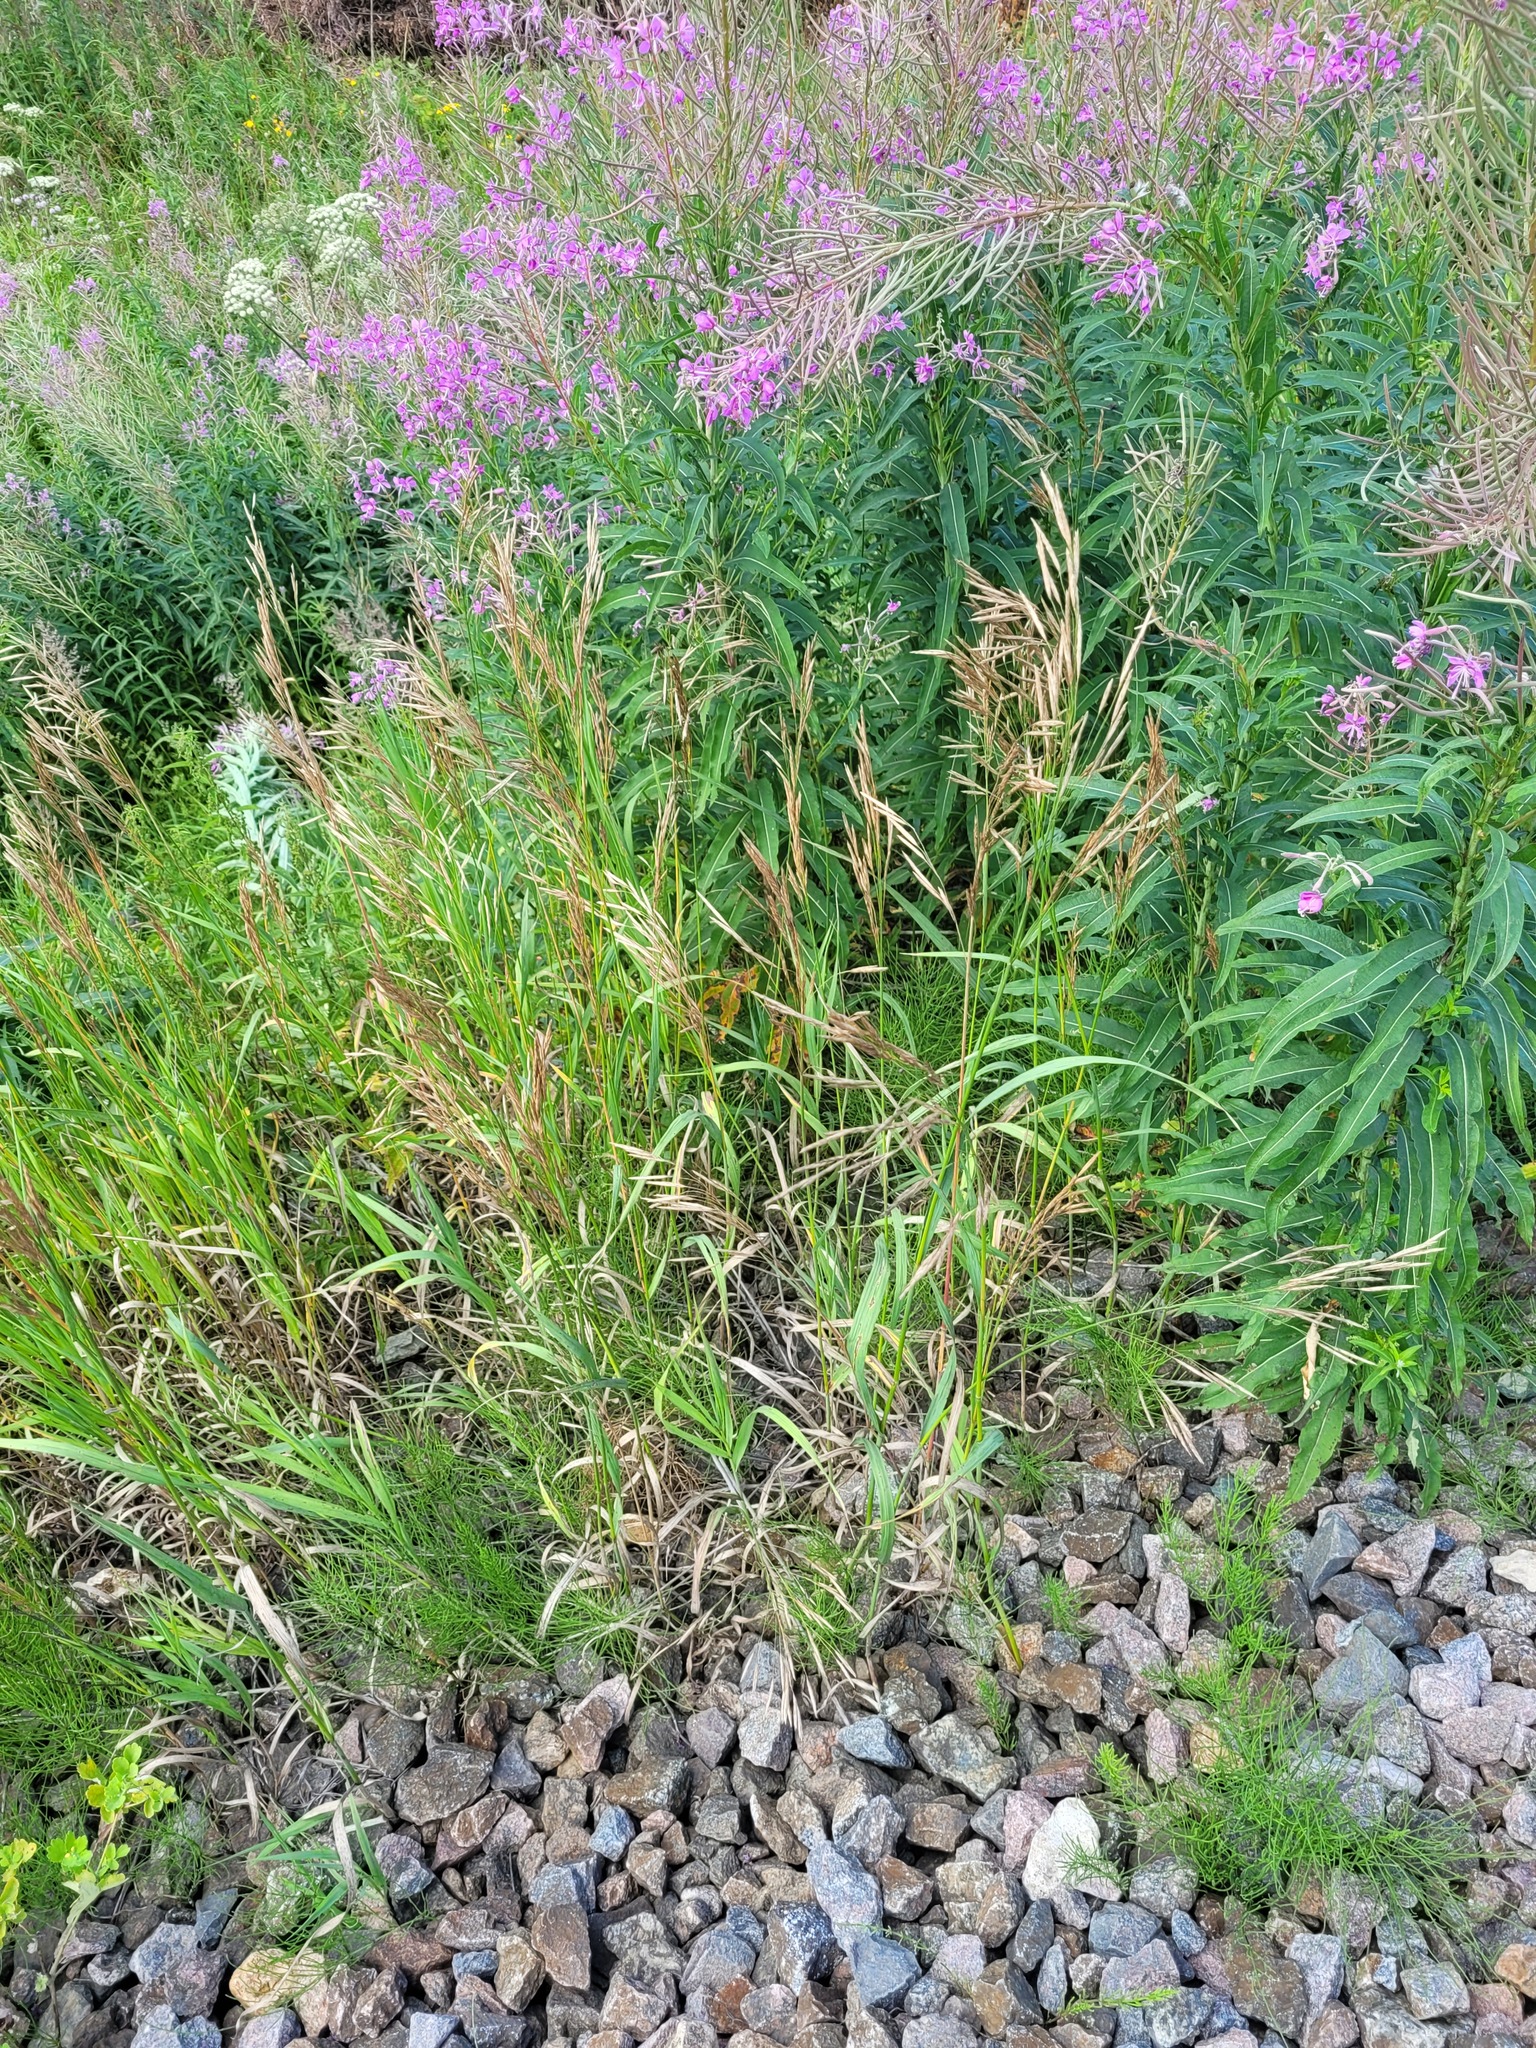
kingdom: Plantae
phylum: Tracheophyta
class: Liliopsida
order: Poales
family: Poaceae
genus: Bromus
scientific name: Bromus inermis
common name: Smooth brome
